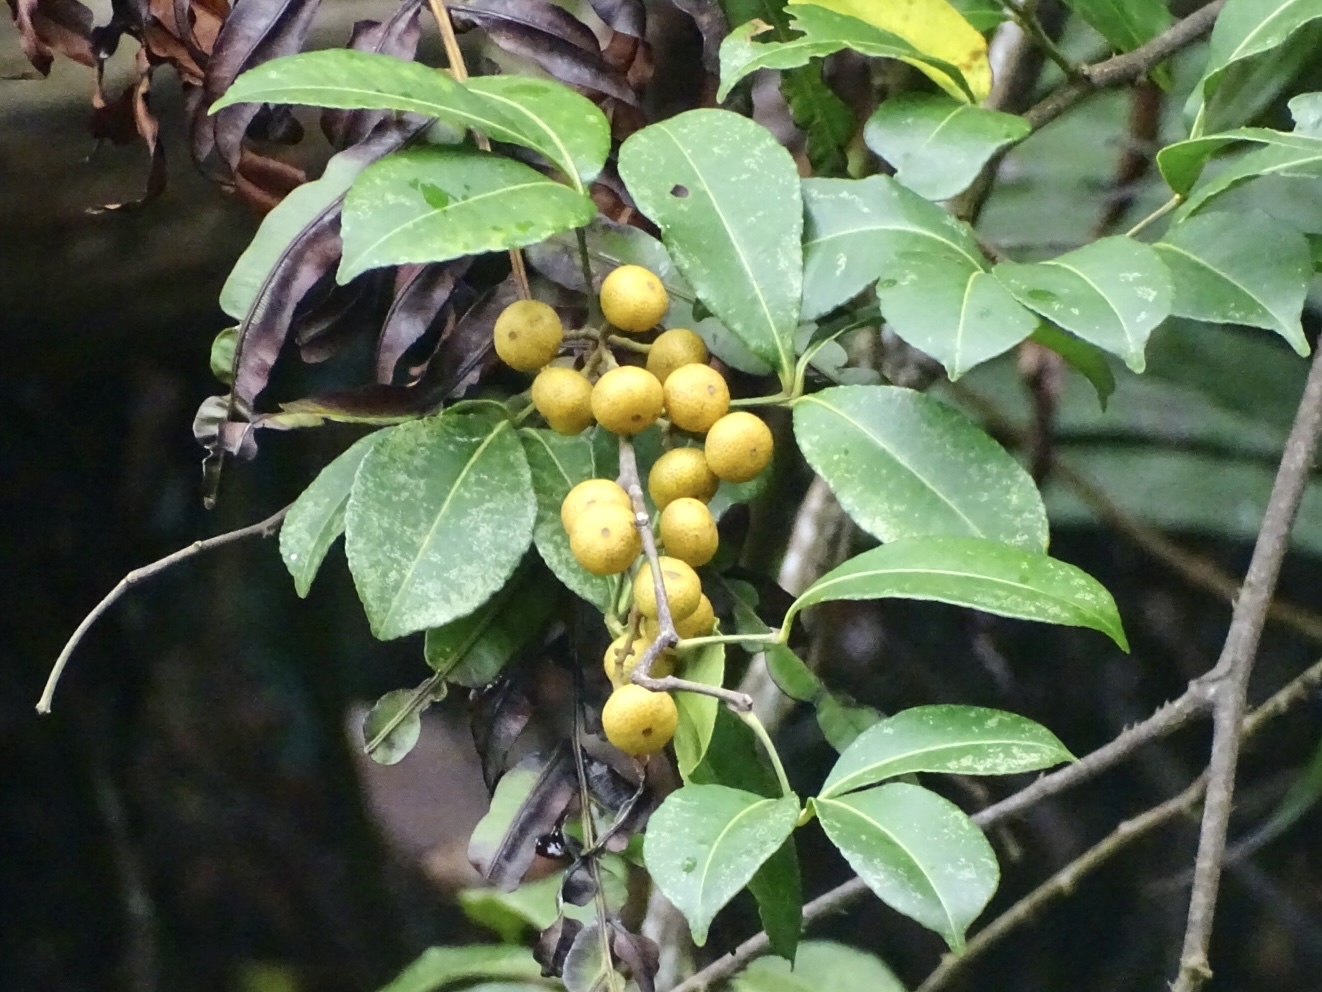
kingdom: Plantae
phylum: Tracheophyta
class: Magnoliopsida
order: Sapindales
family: Rutaceae
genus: Zanthoxylum
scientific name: Zanthoxylum asiaticum
